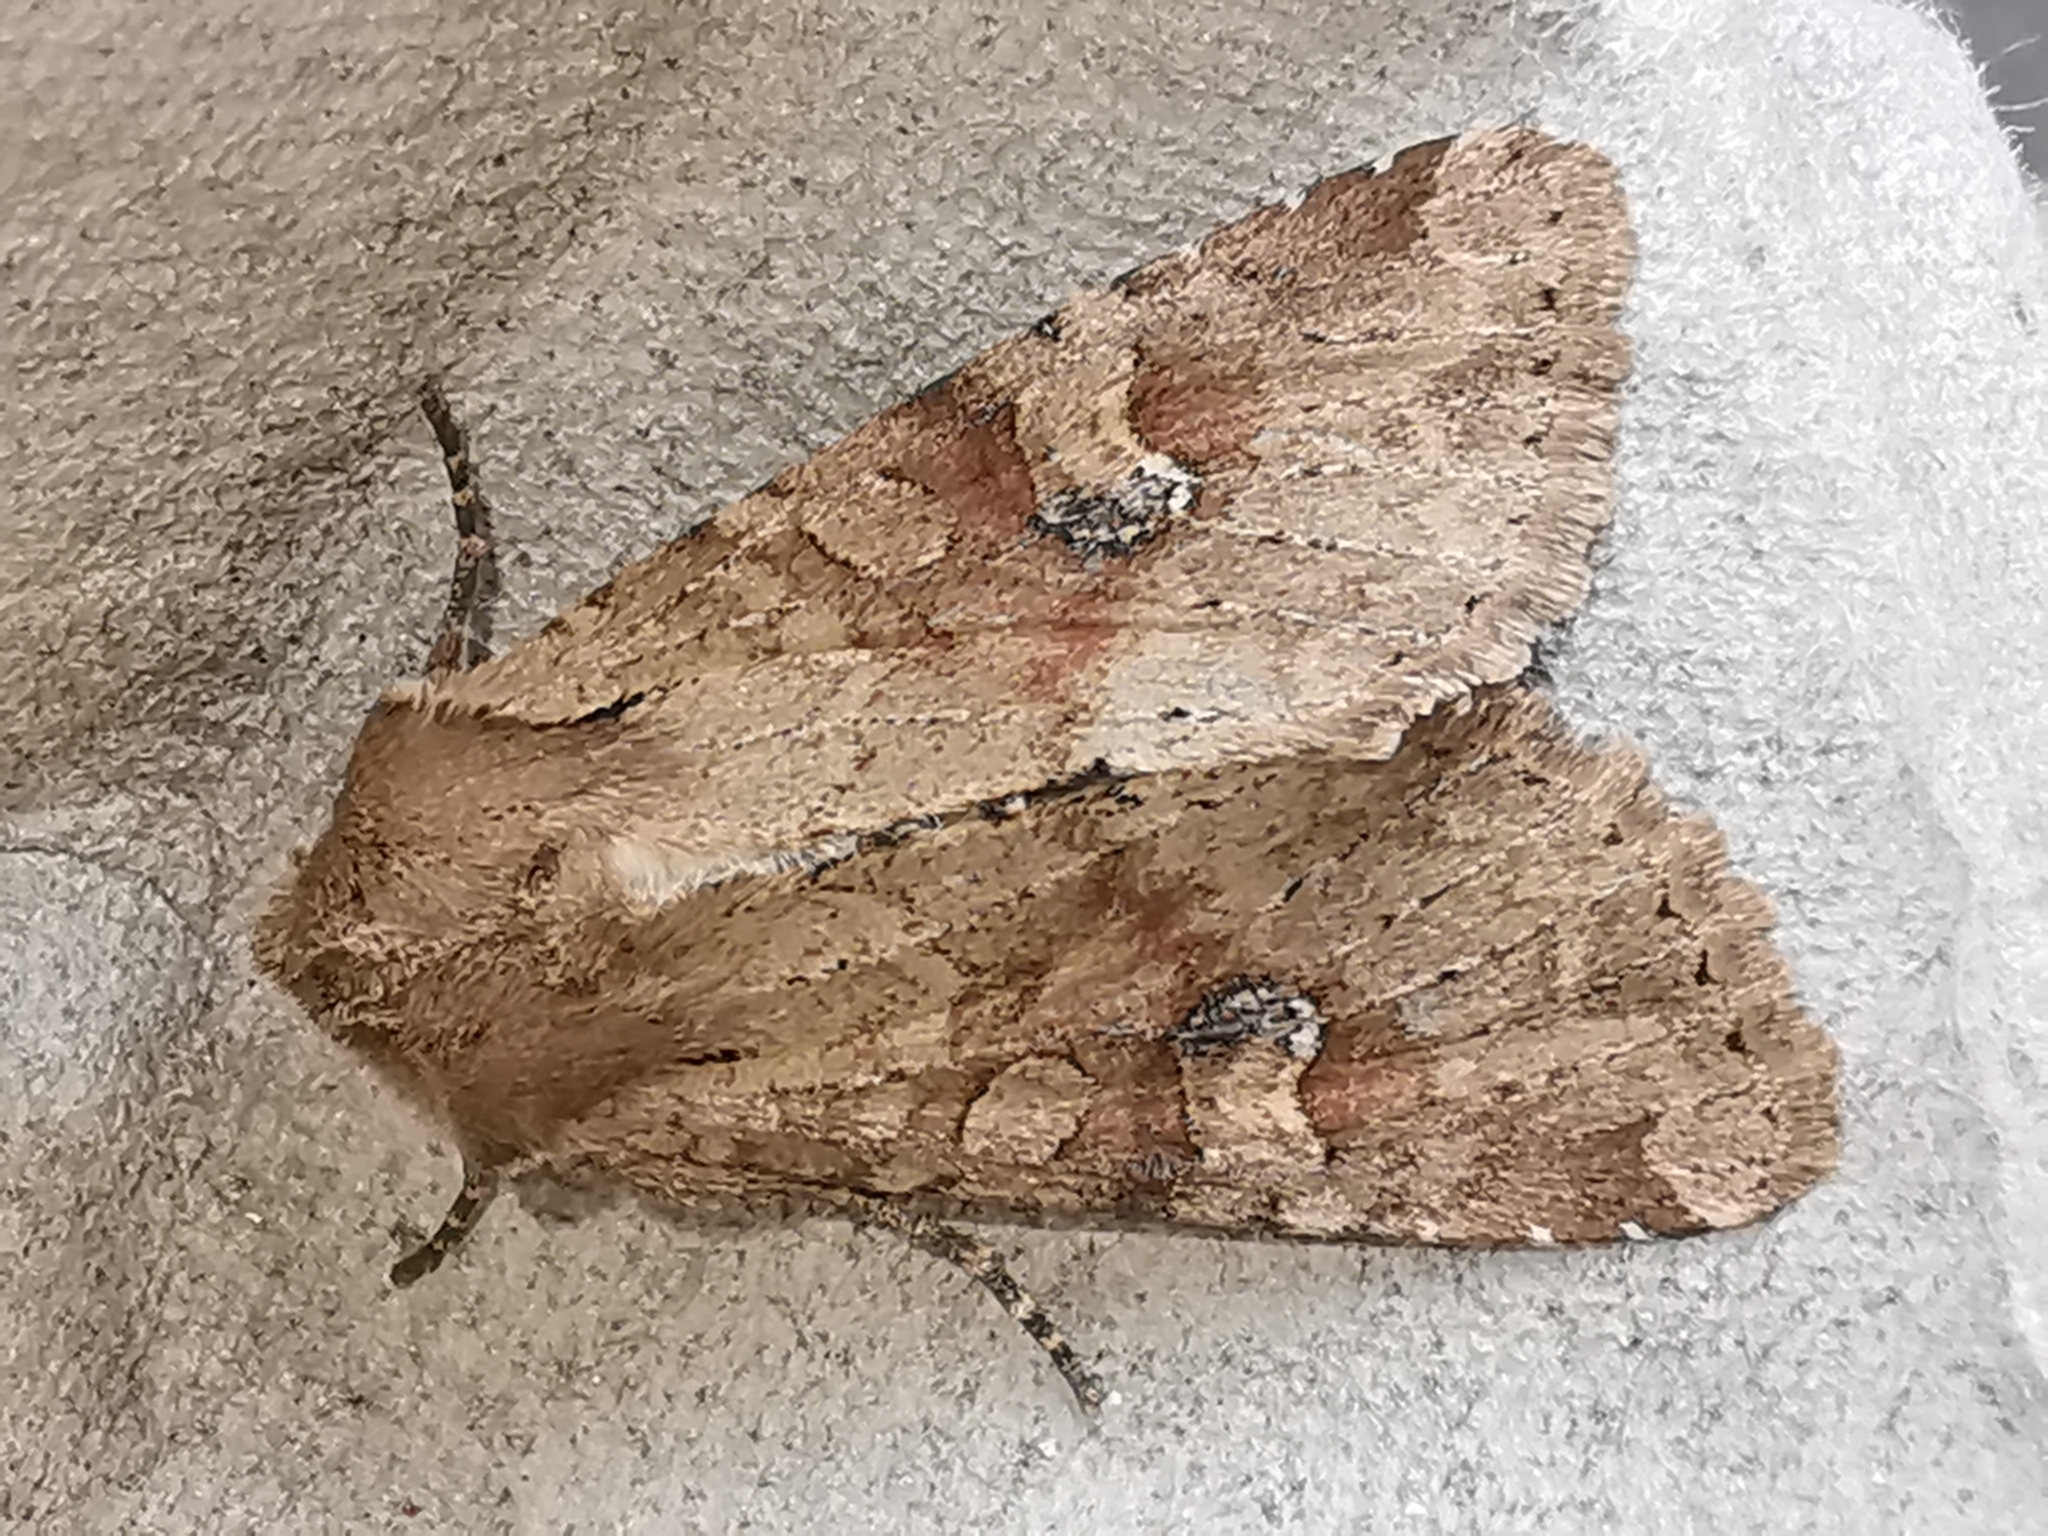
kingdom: Animalia
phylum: Arthropoda
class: Insecta
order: Lepidoptera
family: Noctuidae
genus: Apamea
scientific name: Apamea sordens
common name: Rustic shoulder-knot
